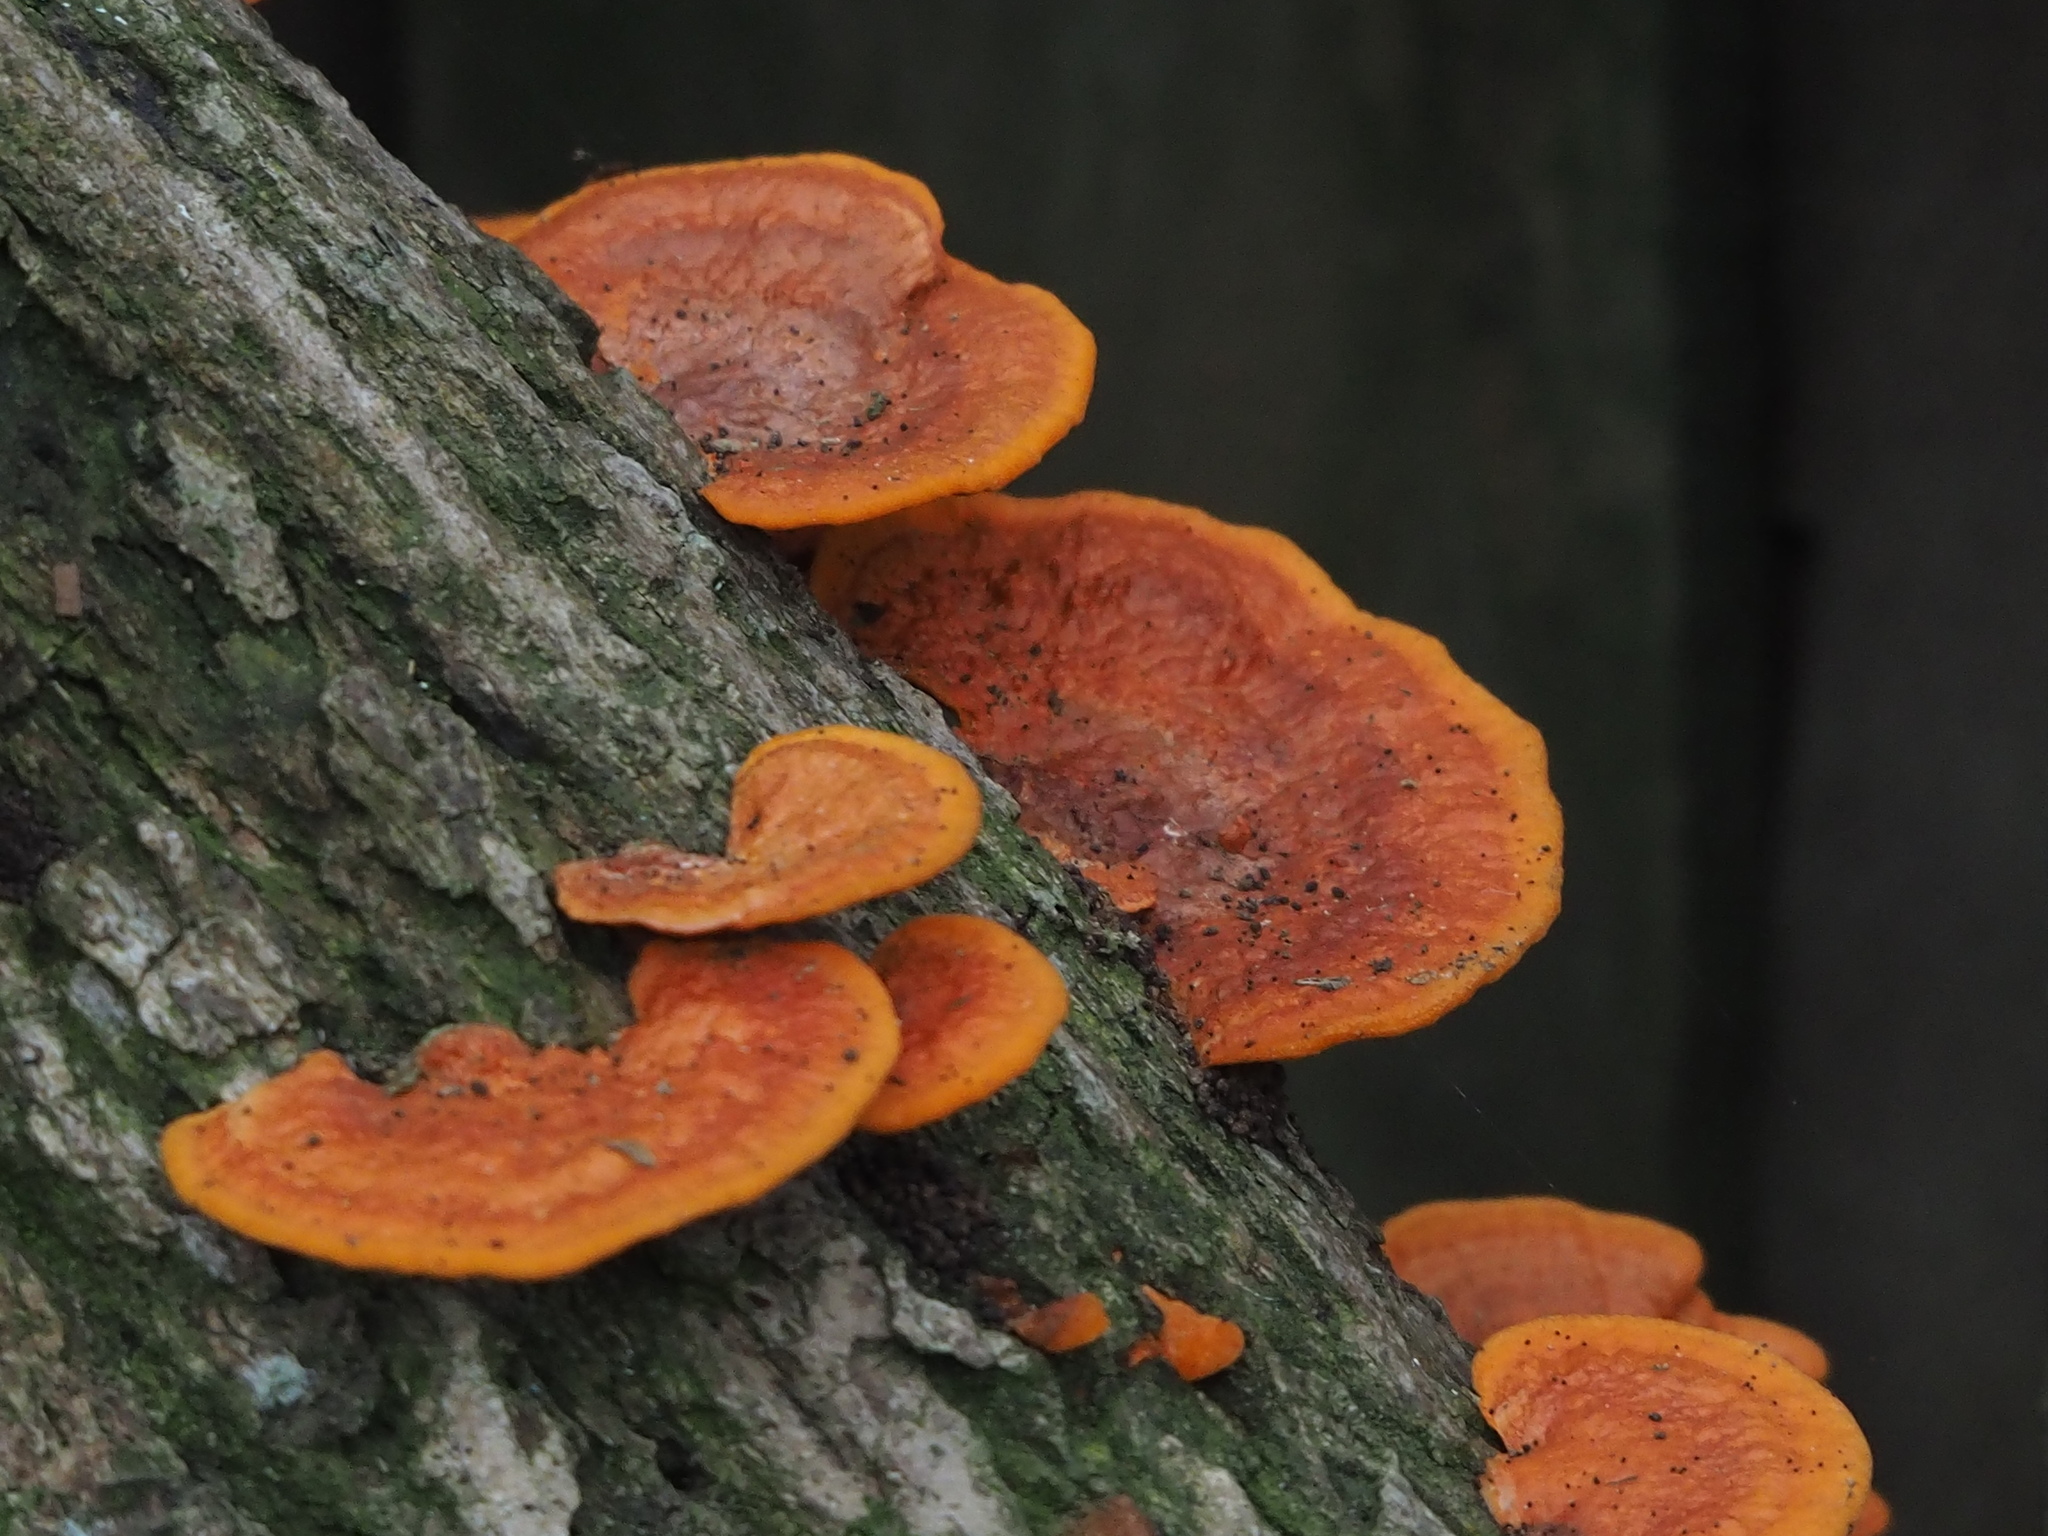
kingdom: Fungi
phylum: Basidiomycota
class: Agaricomycetes
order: Polyporales
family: Polyporaceae
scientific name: Polyporaceae
